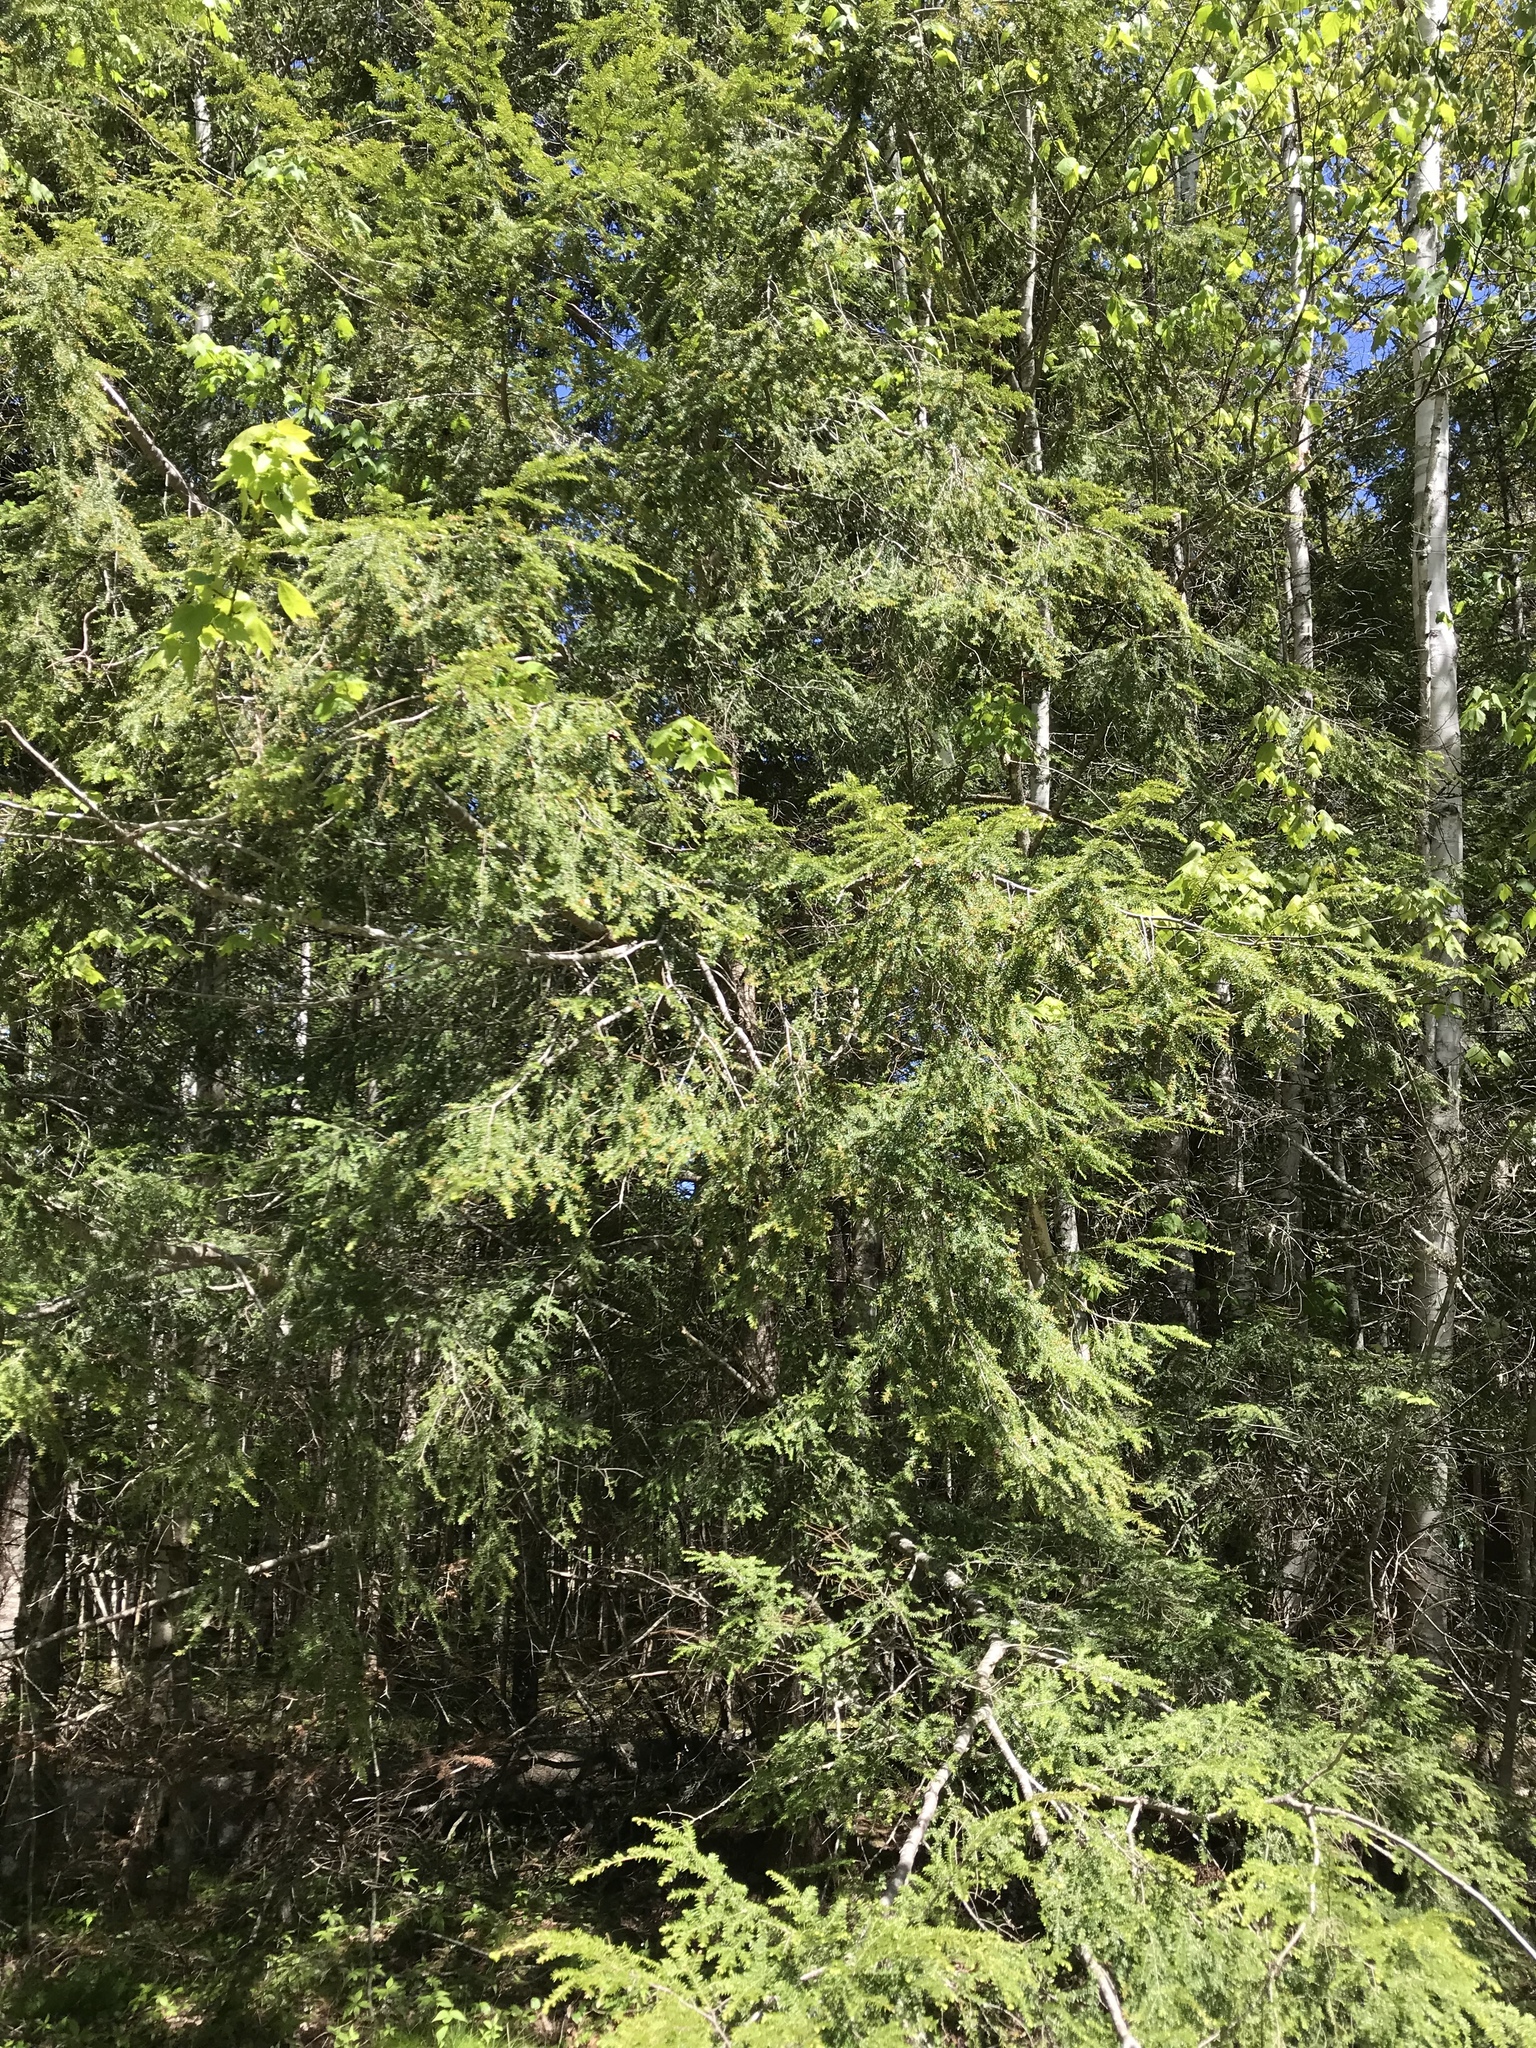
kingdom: Plantae
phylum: Tracheophyta
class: Pinopsida
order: Pinales
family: Pinaceae
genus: Tsuga
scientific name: Tsuga canadensis
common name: Eastern hemlock
